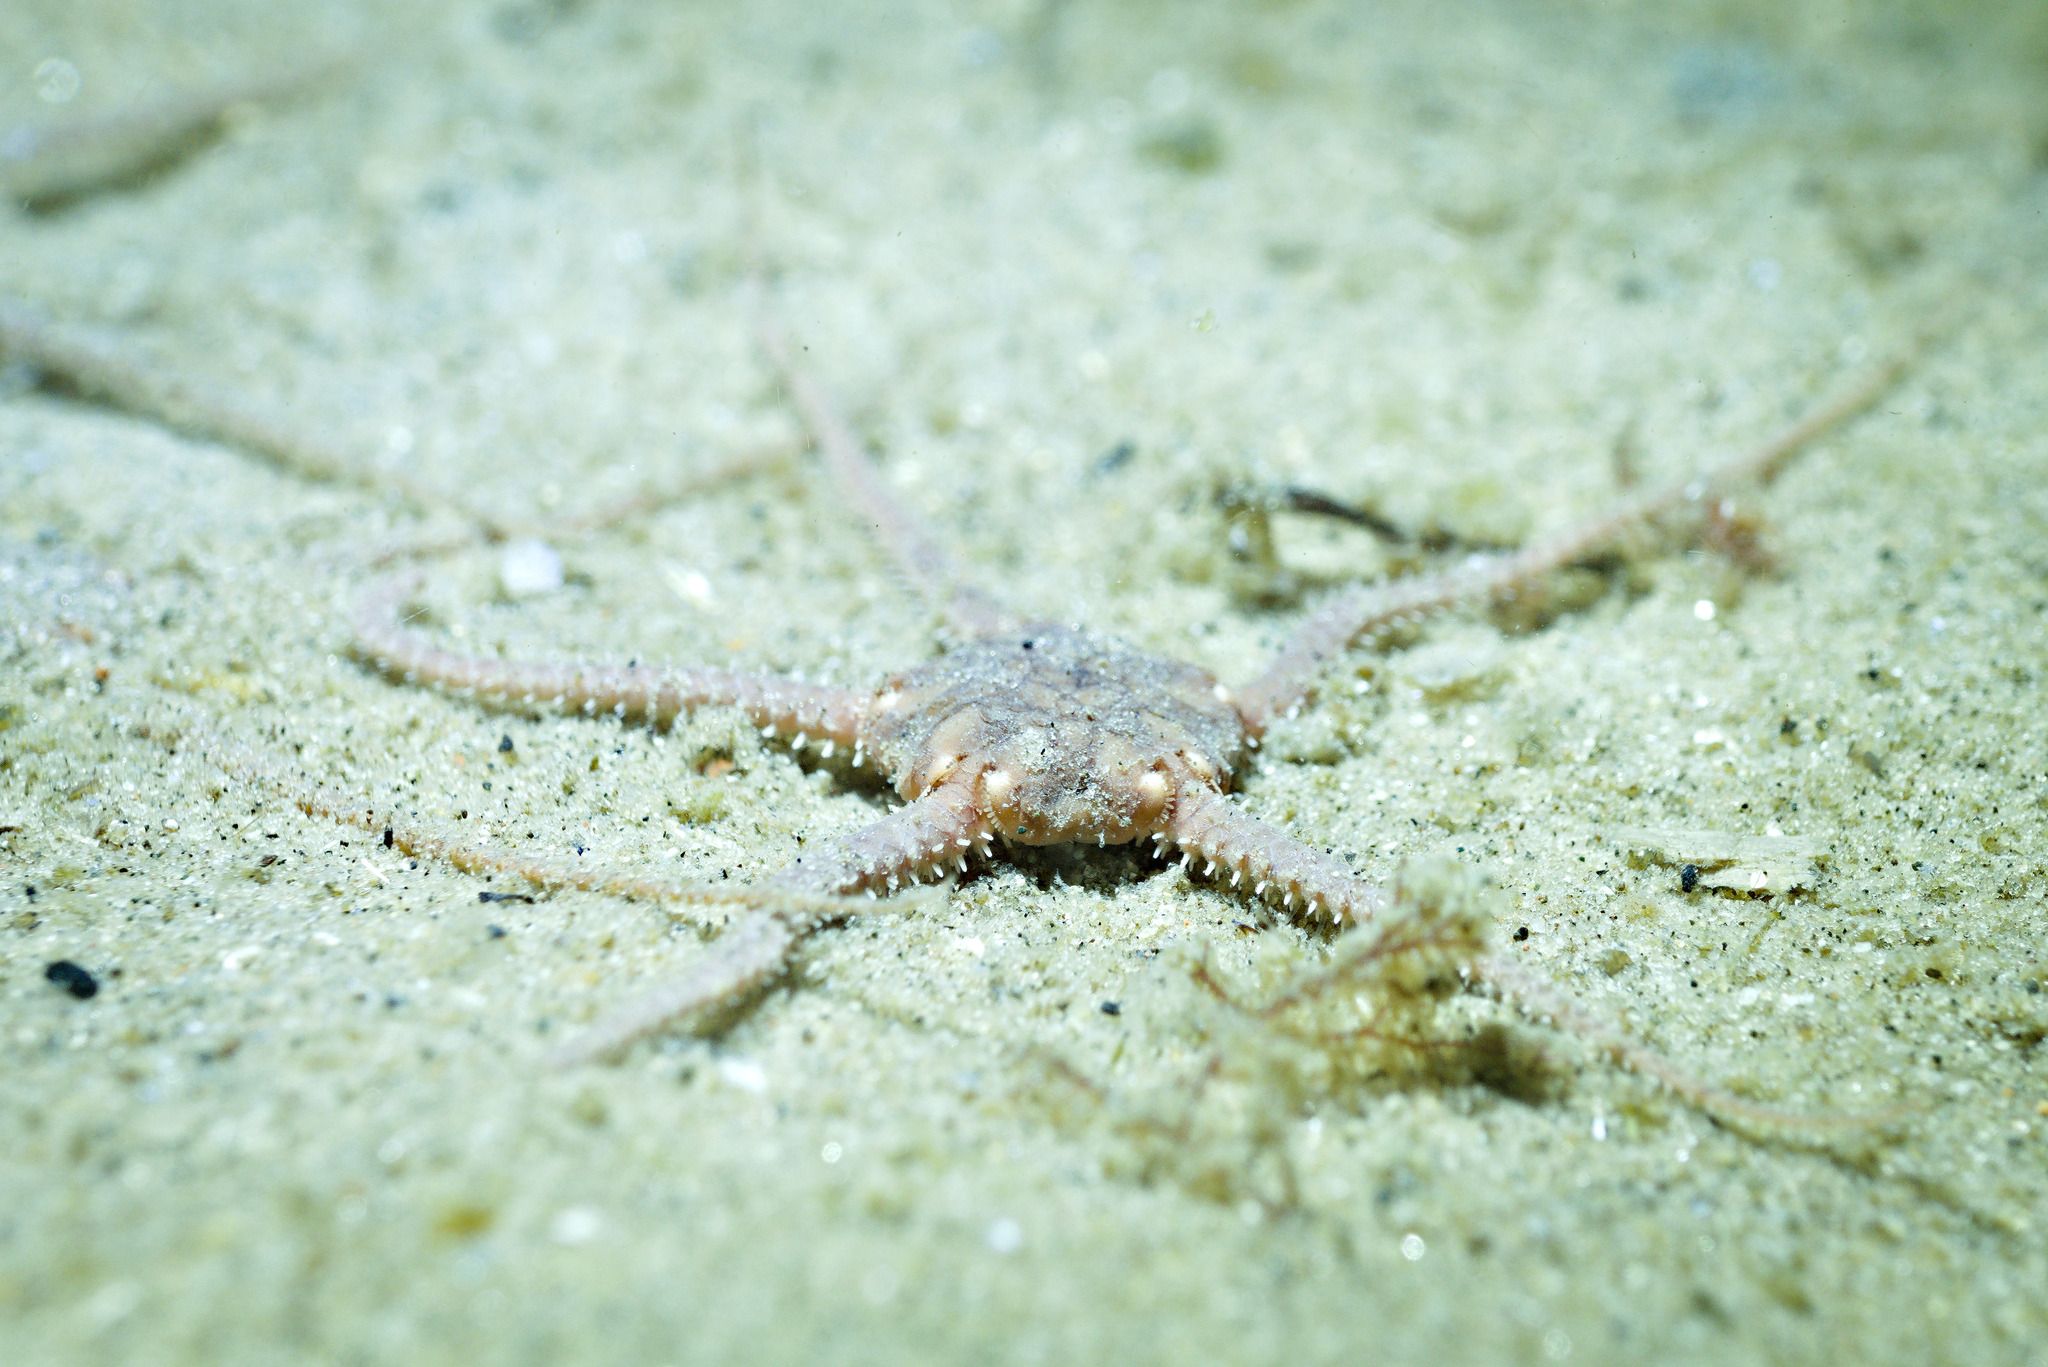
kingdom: Animalia
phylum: Echinodermata
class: Ophiuroidea
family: Ophiuridae
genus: Ophiura
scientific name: Ophiura albida
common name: Serpent's table brittlestar
